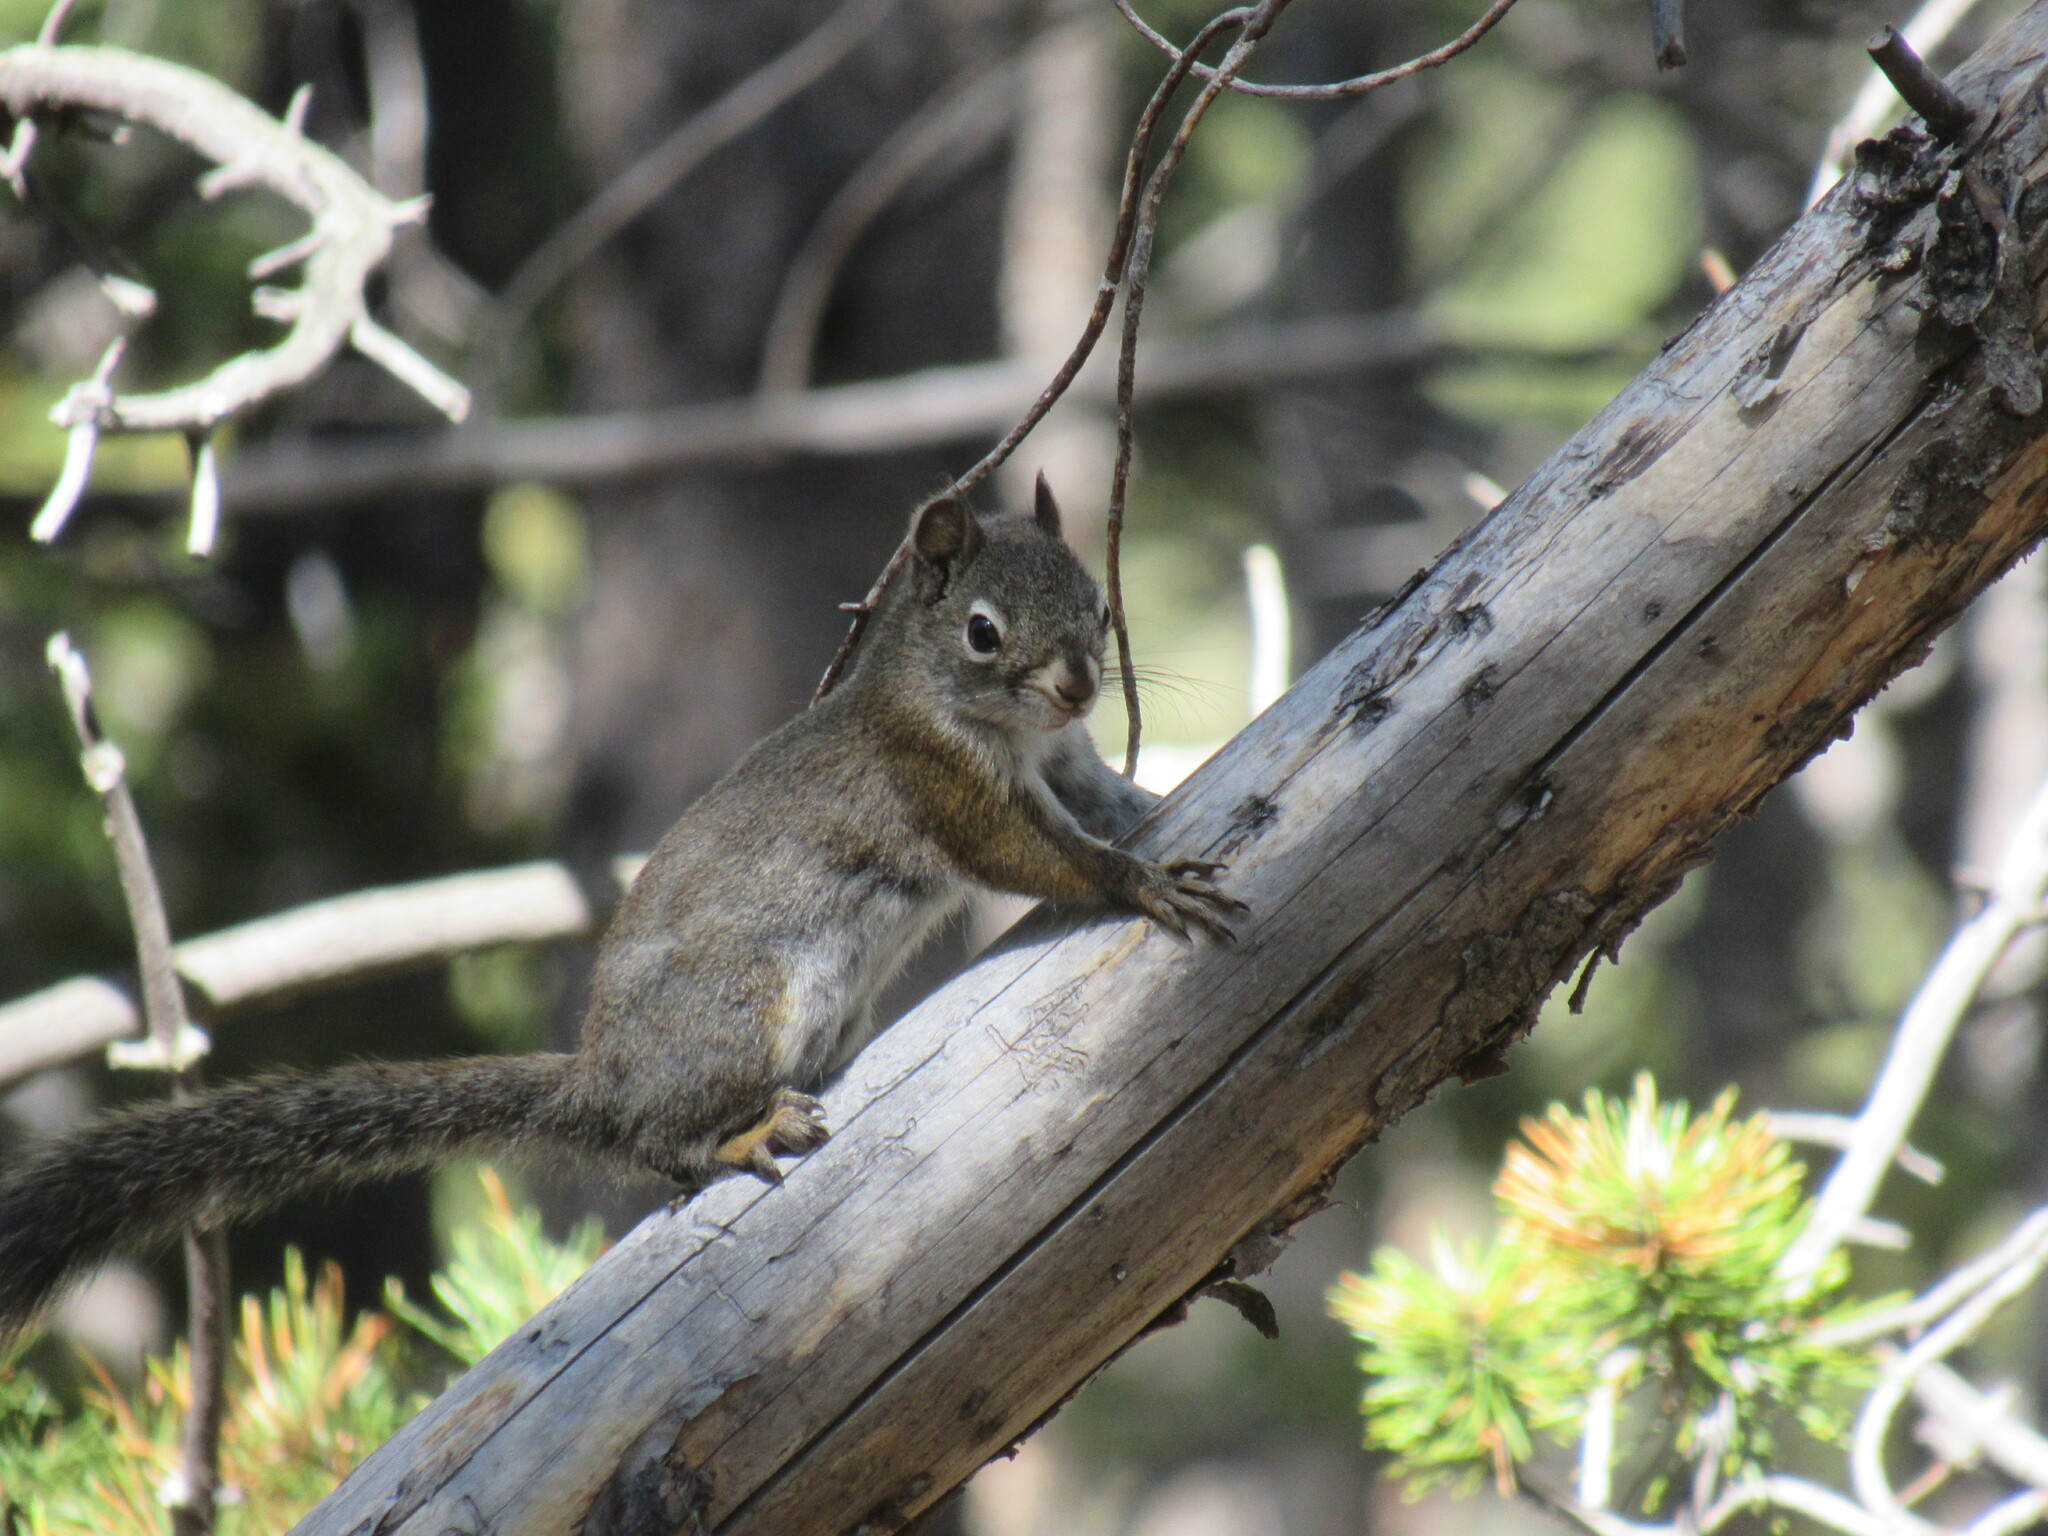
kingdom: Animalia
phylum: Chordata
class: Mammalia
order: Rodentia
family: Sciuridae
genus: Tamiasciurus
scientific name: Tamiasciurus hudsonicus
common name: Red squirrel
